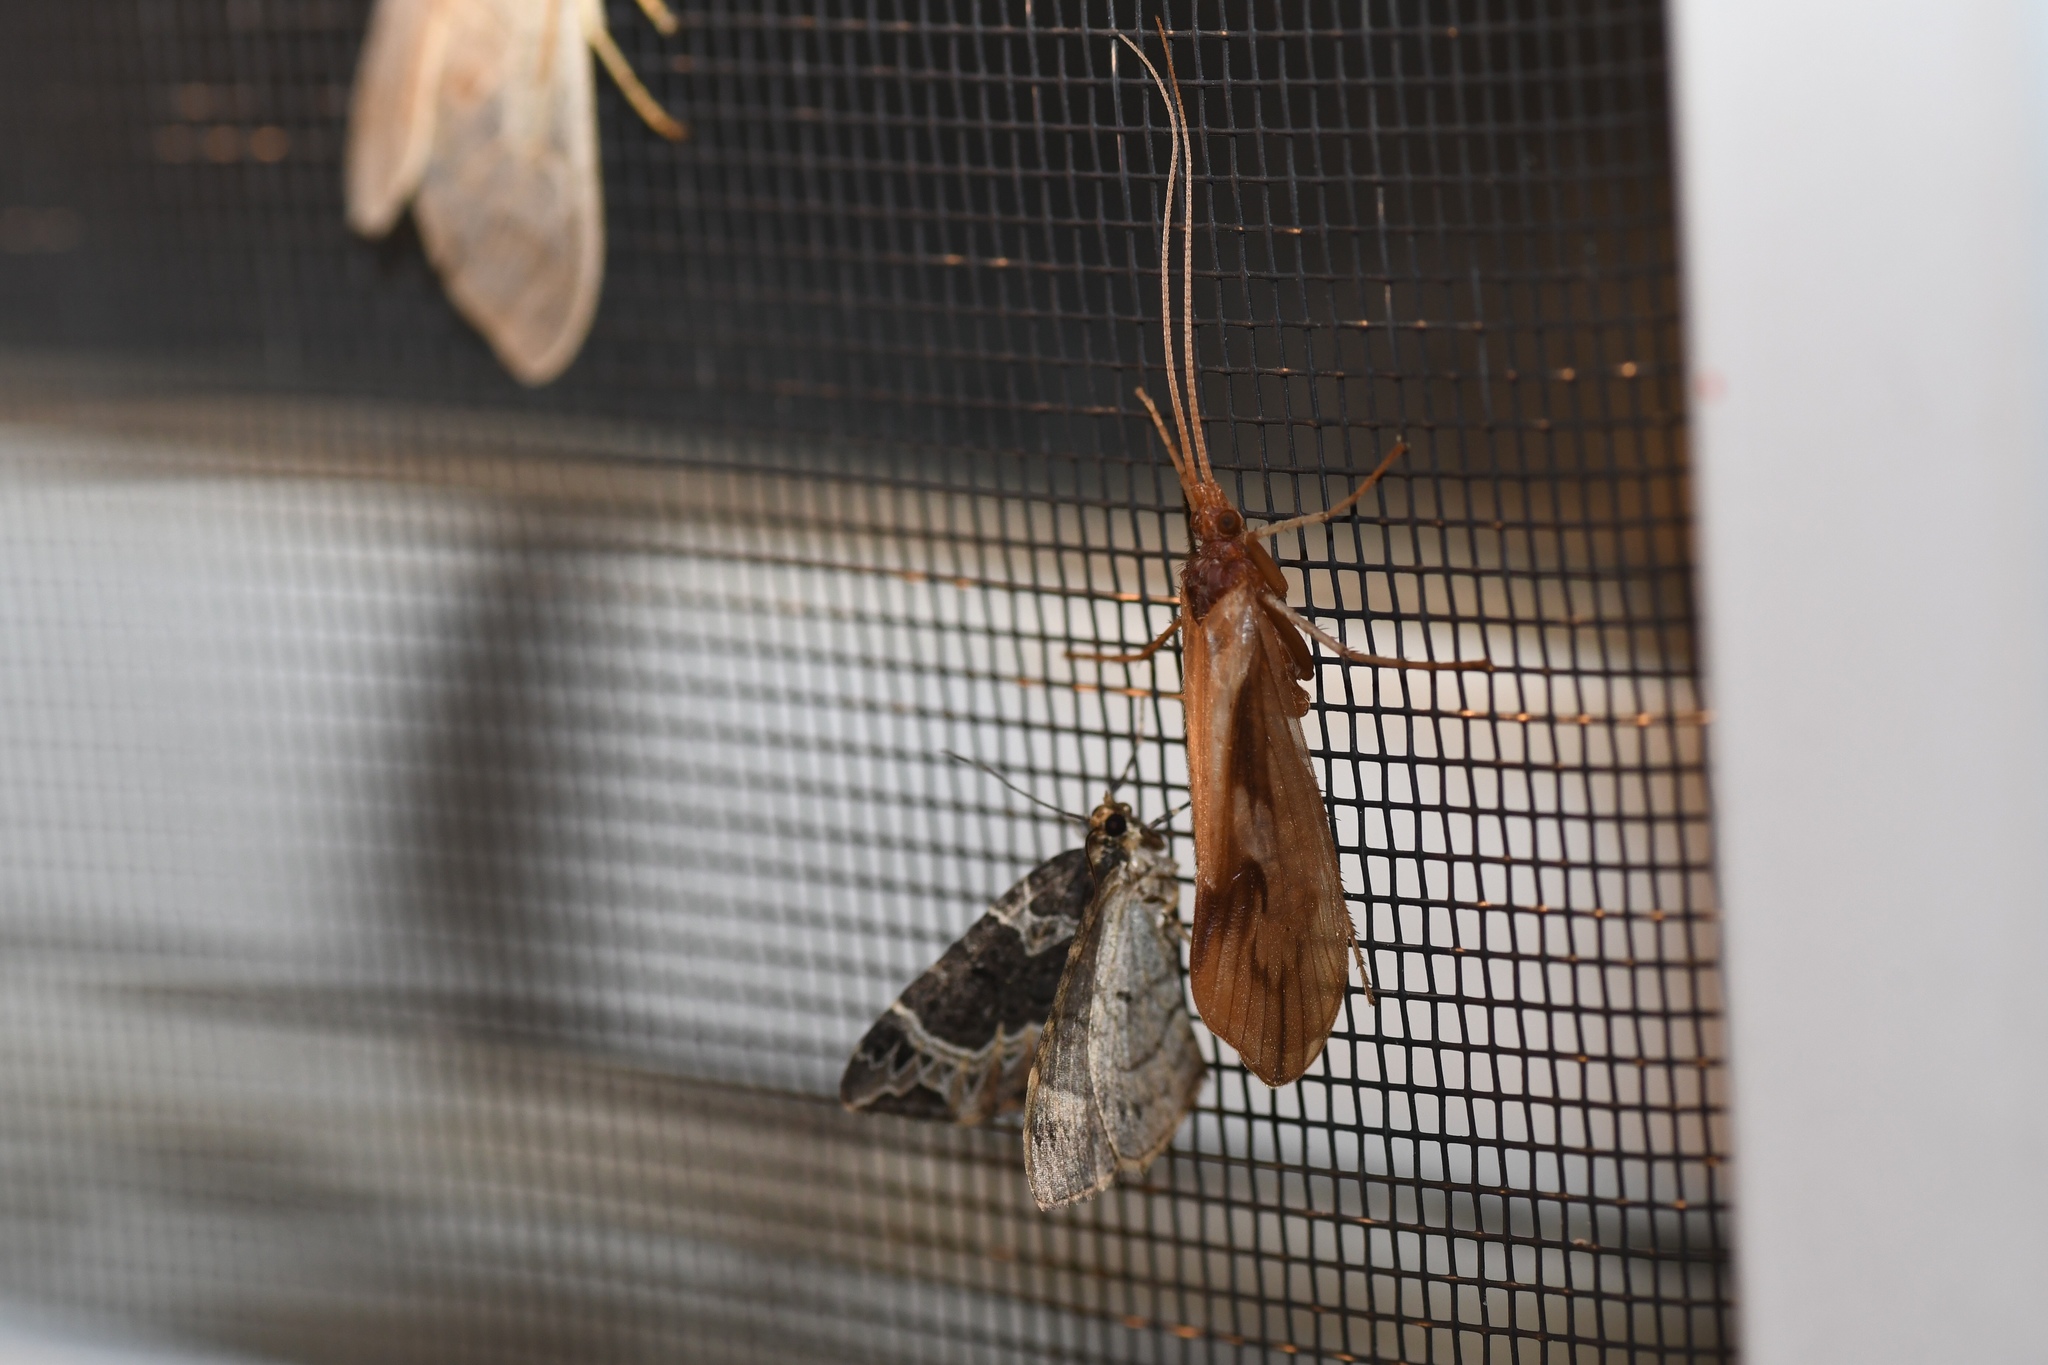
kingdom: Animalia
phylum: Arthropoda
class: Insecta
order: Trichoptera
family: Limnephilidae
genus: Platycentropus
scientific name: Platycentropus radiatus
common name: Chocolate-and-cream sedge
